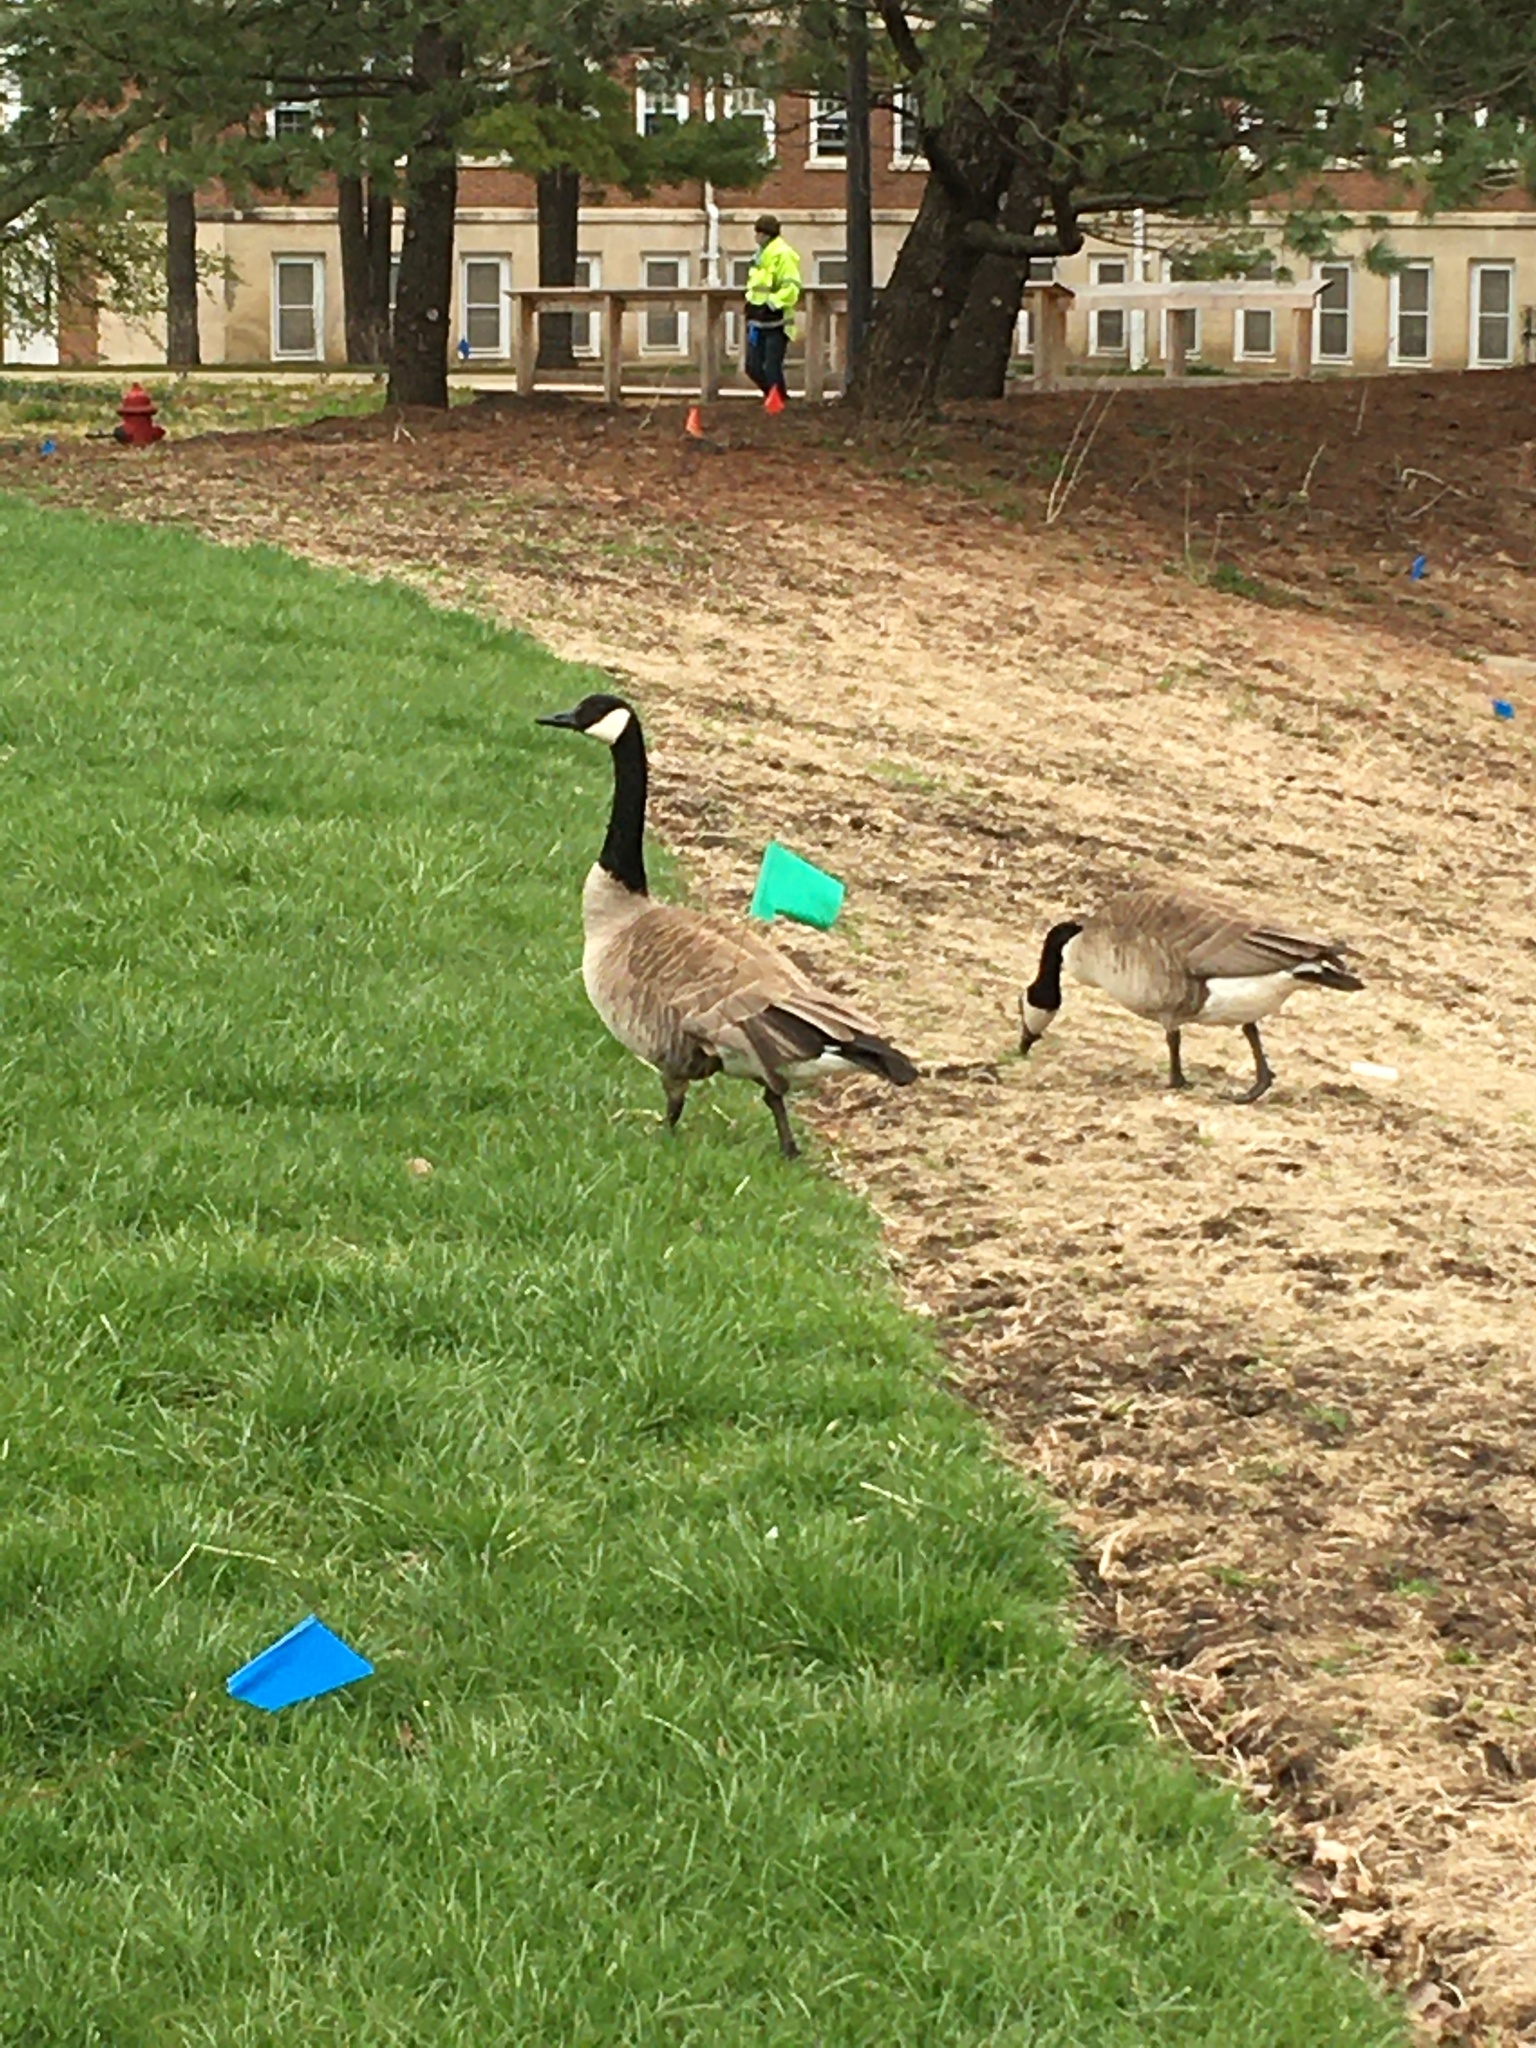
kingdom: Animalia
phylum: Chordata
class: Aves
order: Anseriformes
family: Anatidae
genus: Branta
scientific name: Branta canadensis
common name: Canada goose
